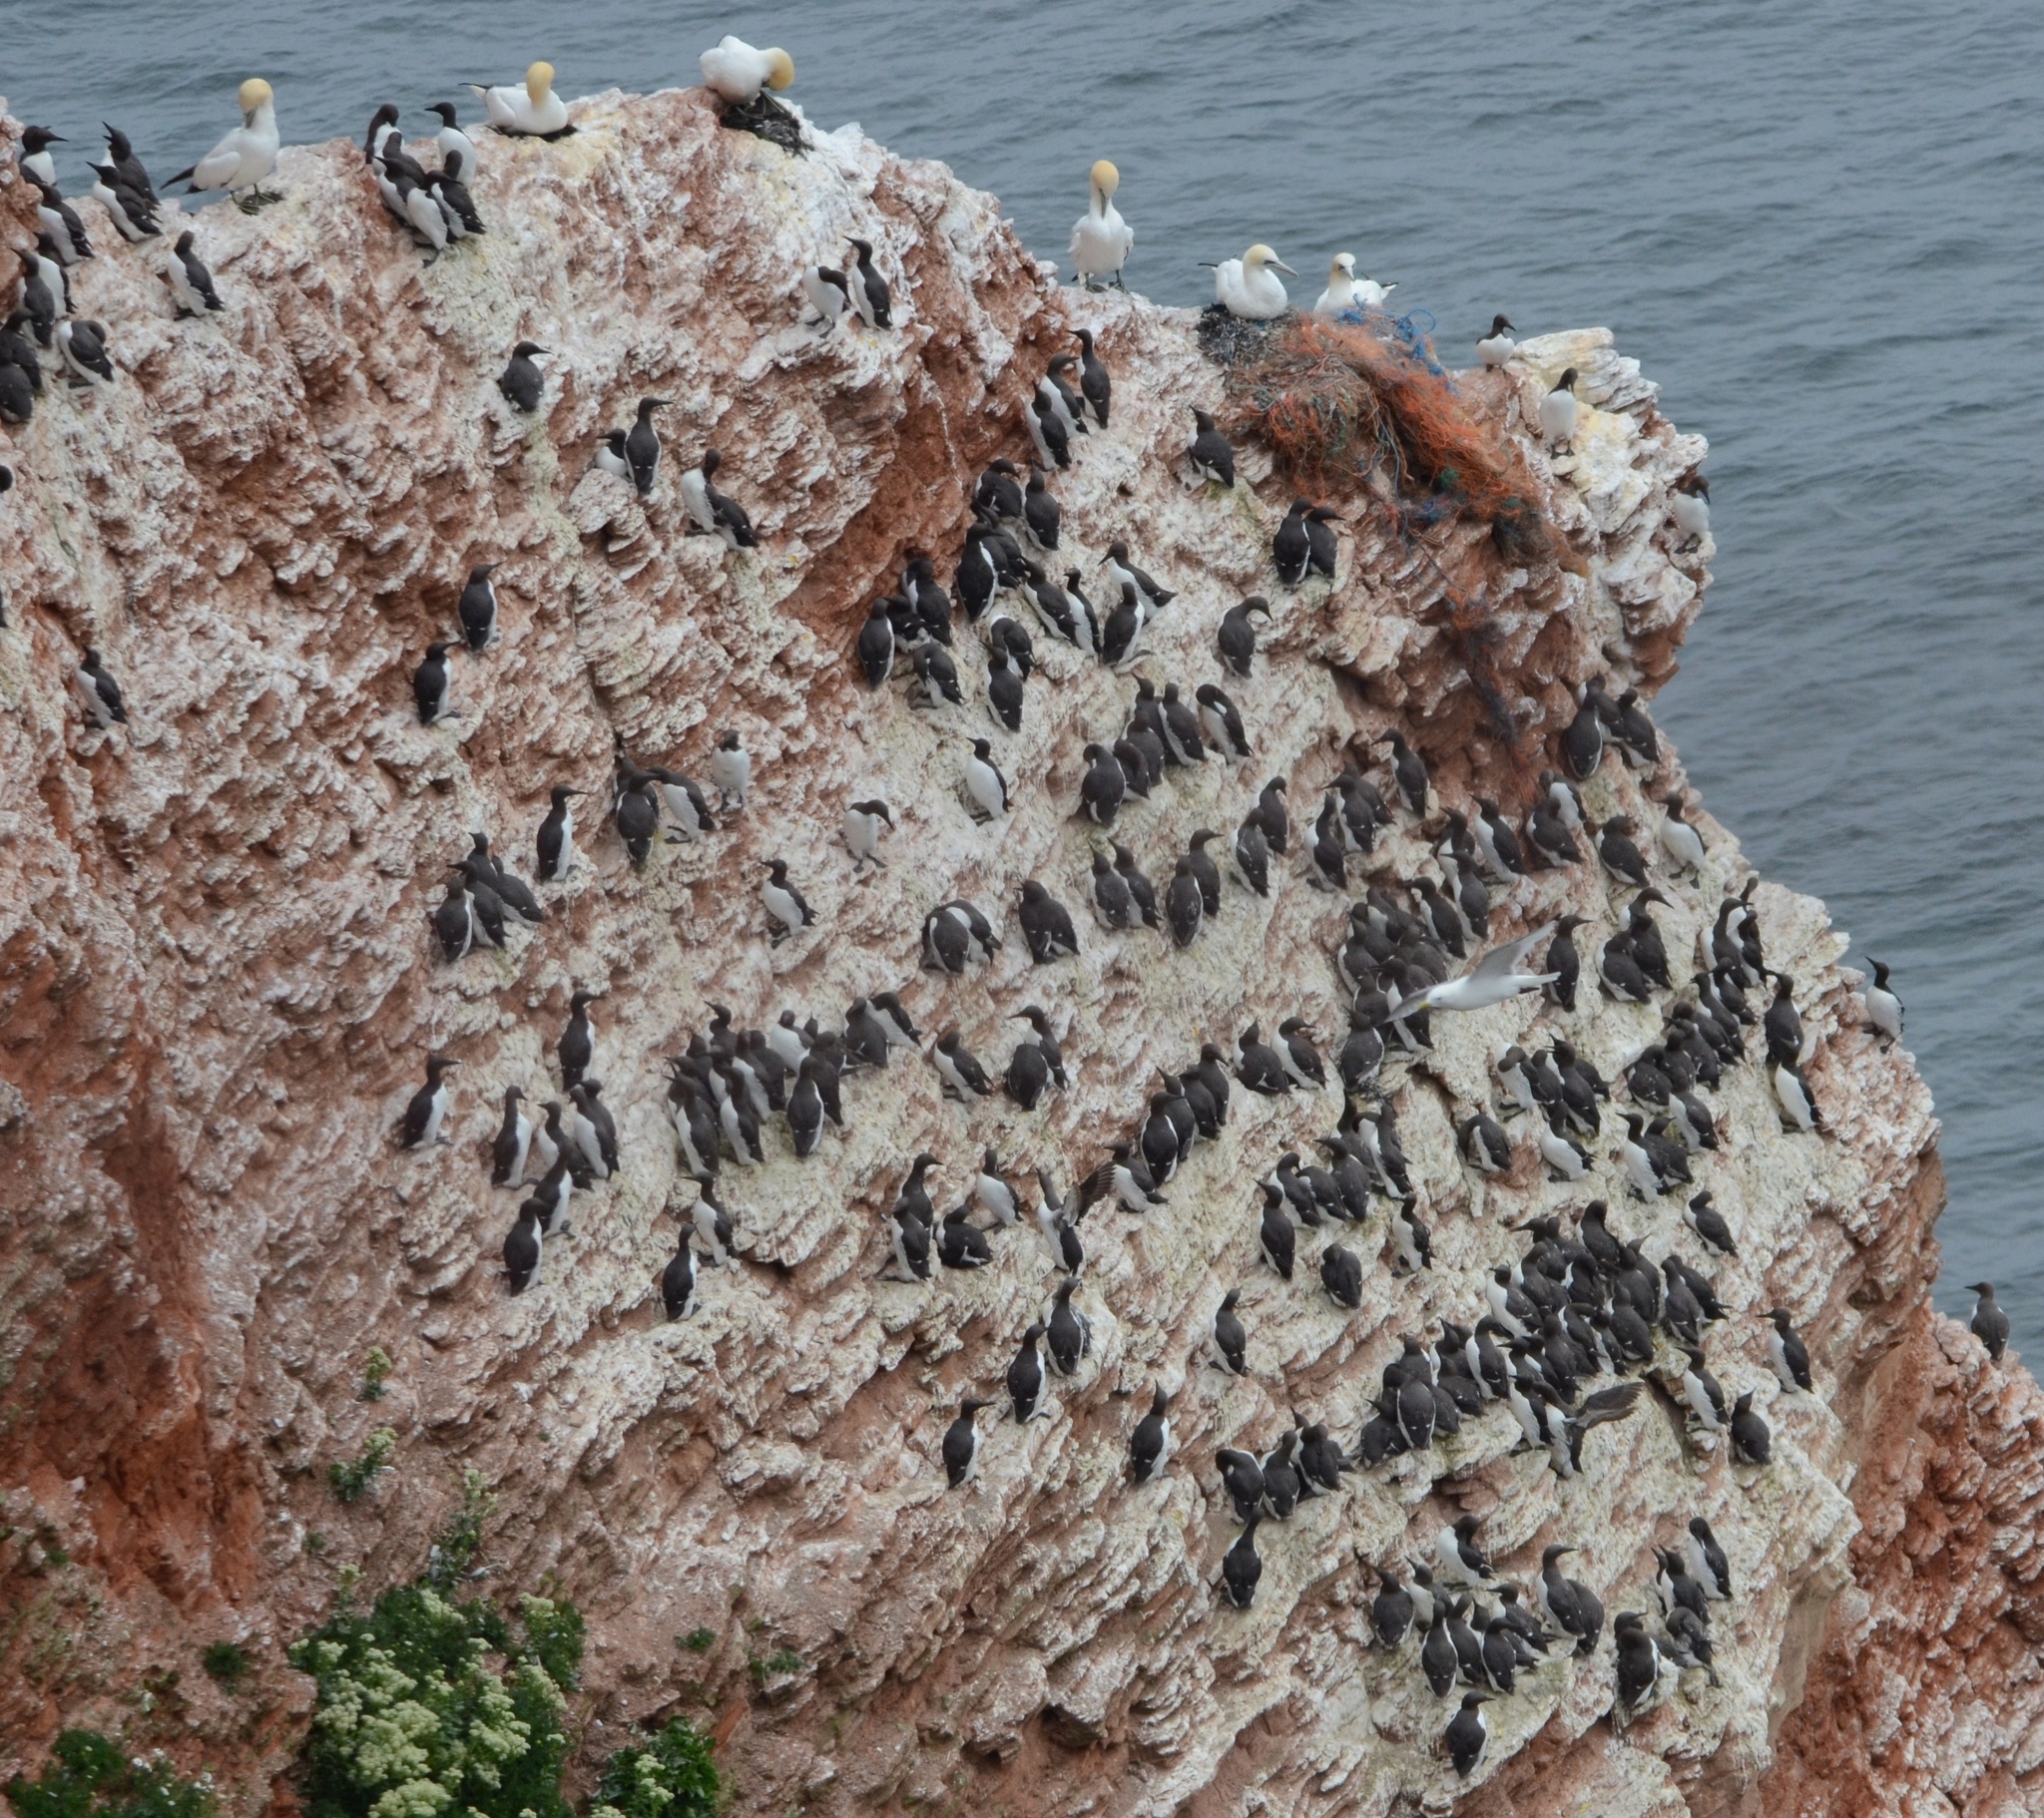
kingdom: Animalia
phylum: Chordata
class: Aves
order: Charadriiformes
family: Alcidae
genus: Uria
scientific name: Uria aalge
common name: Common murre
